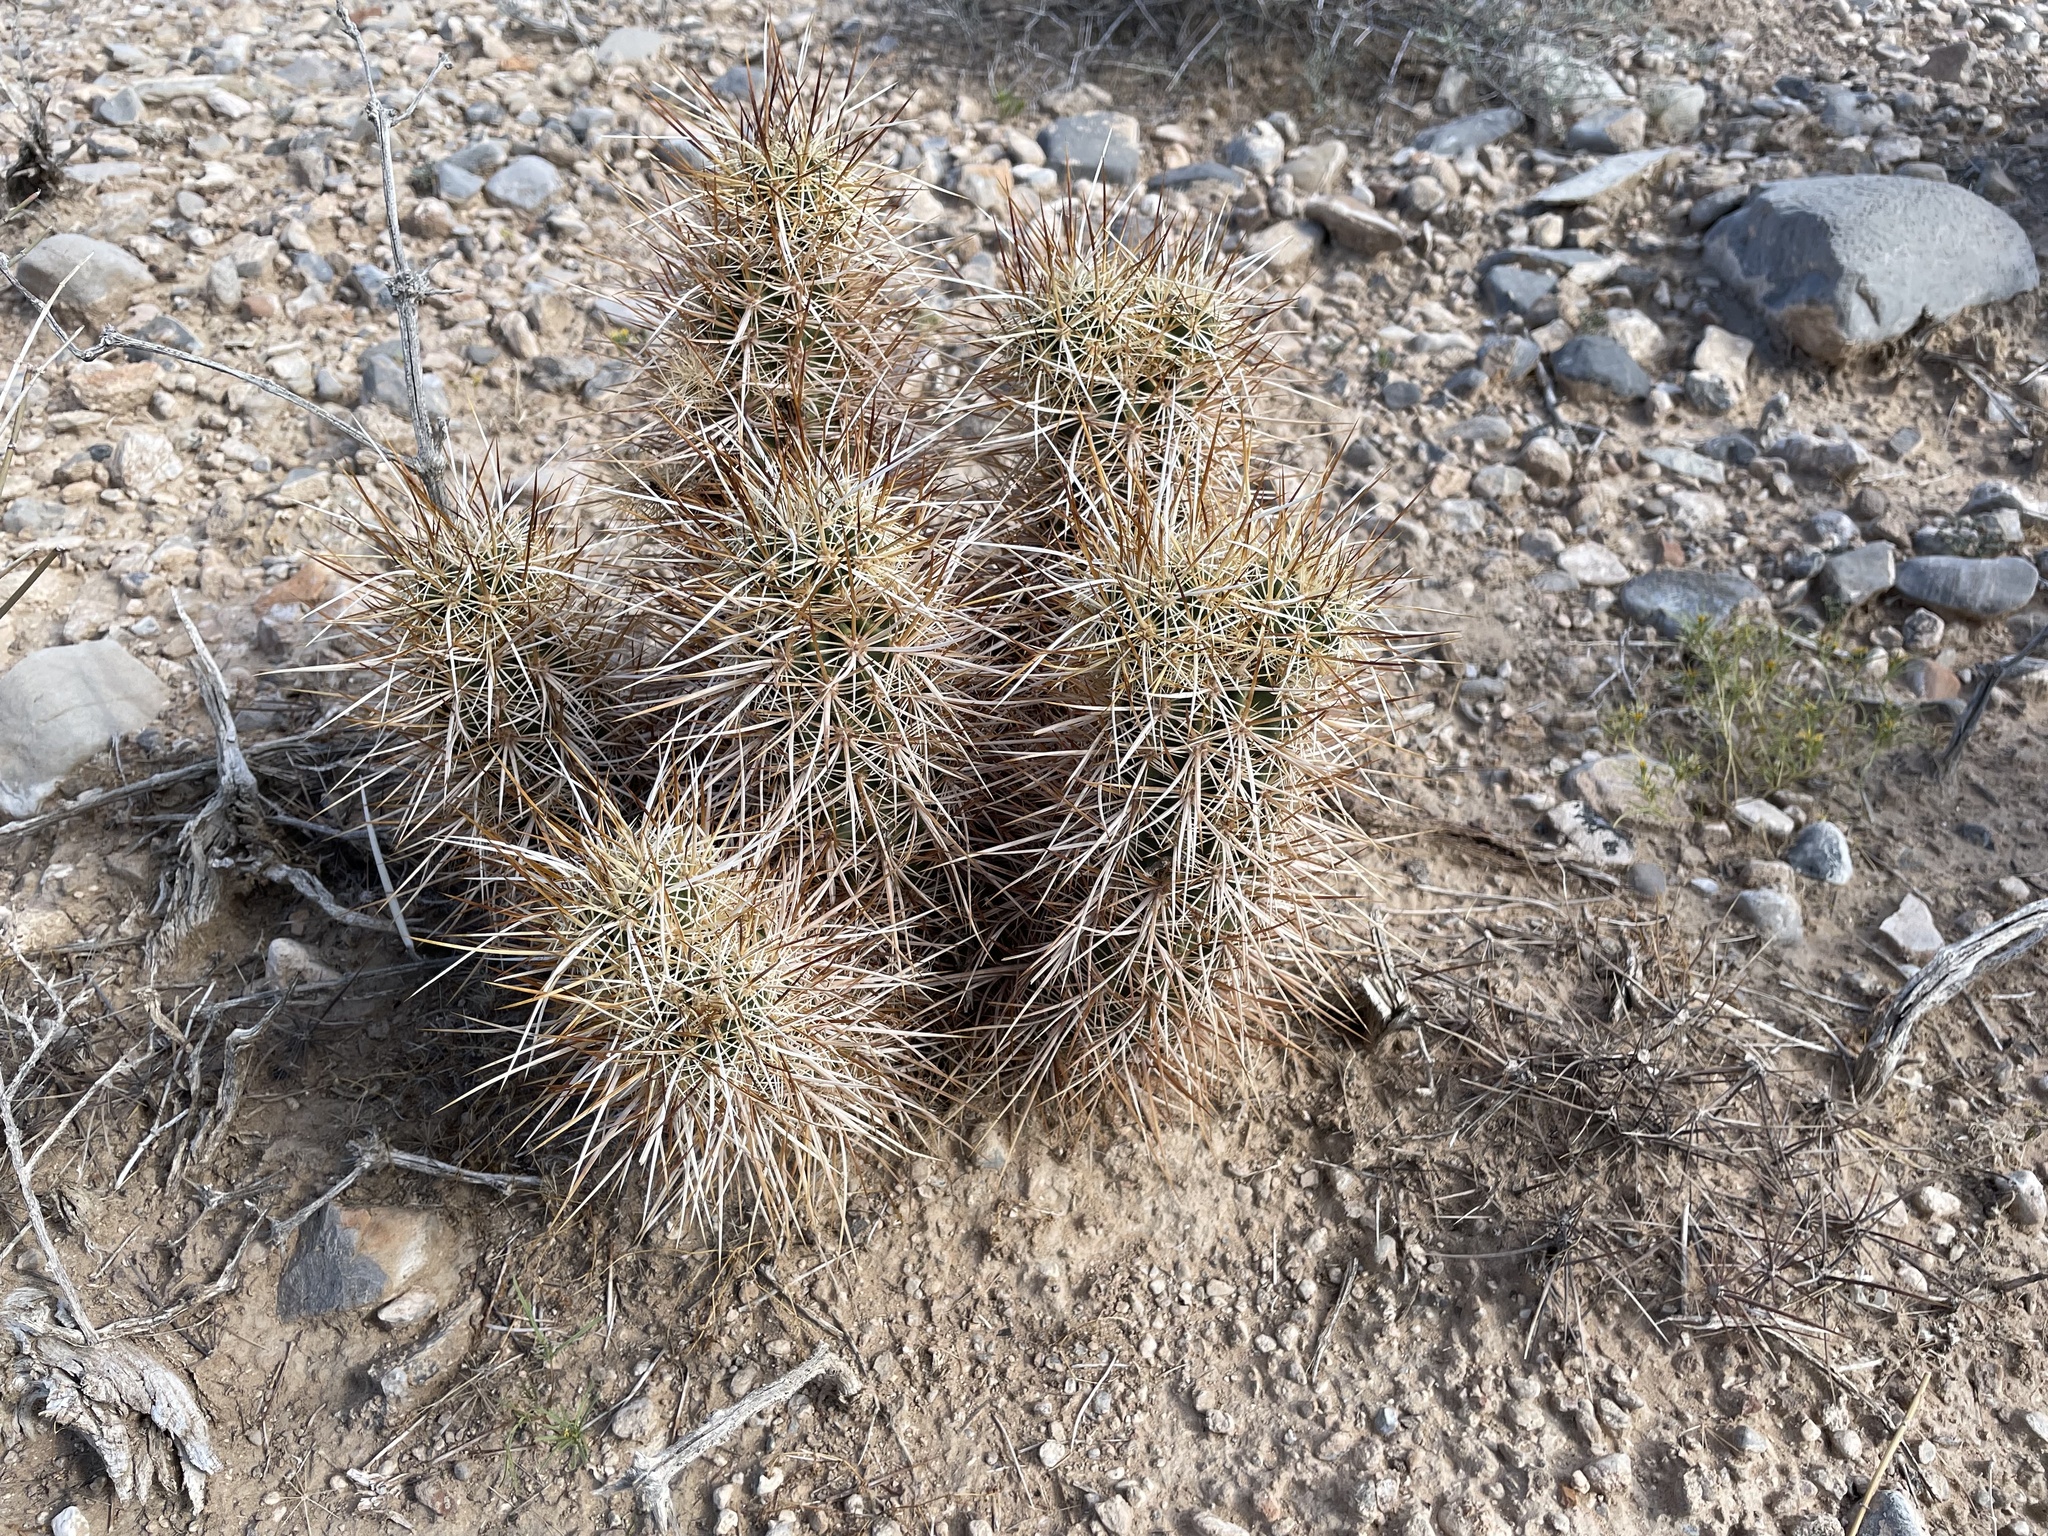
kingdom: Plantae
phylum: Tracheophyta
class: Magnoliopsida
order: Caryophyllales
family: Cactaceae
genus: Echinocereus
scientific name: Echinocereus engelmannii
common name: Engelmann's hedgehog cactus
